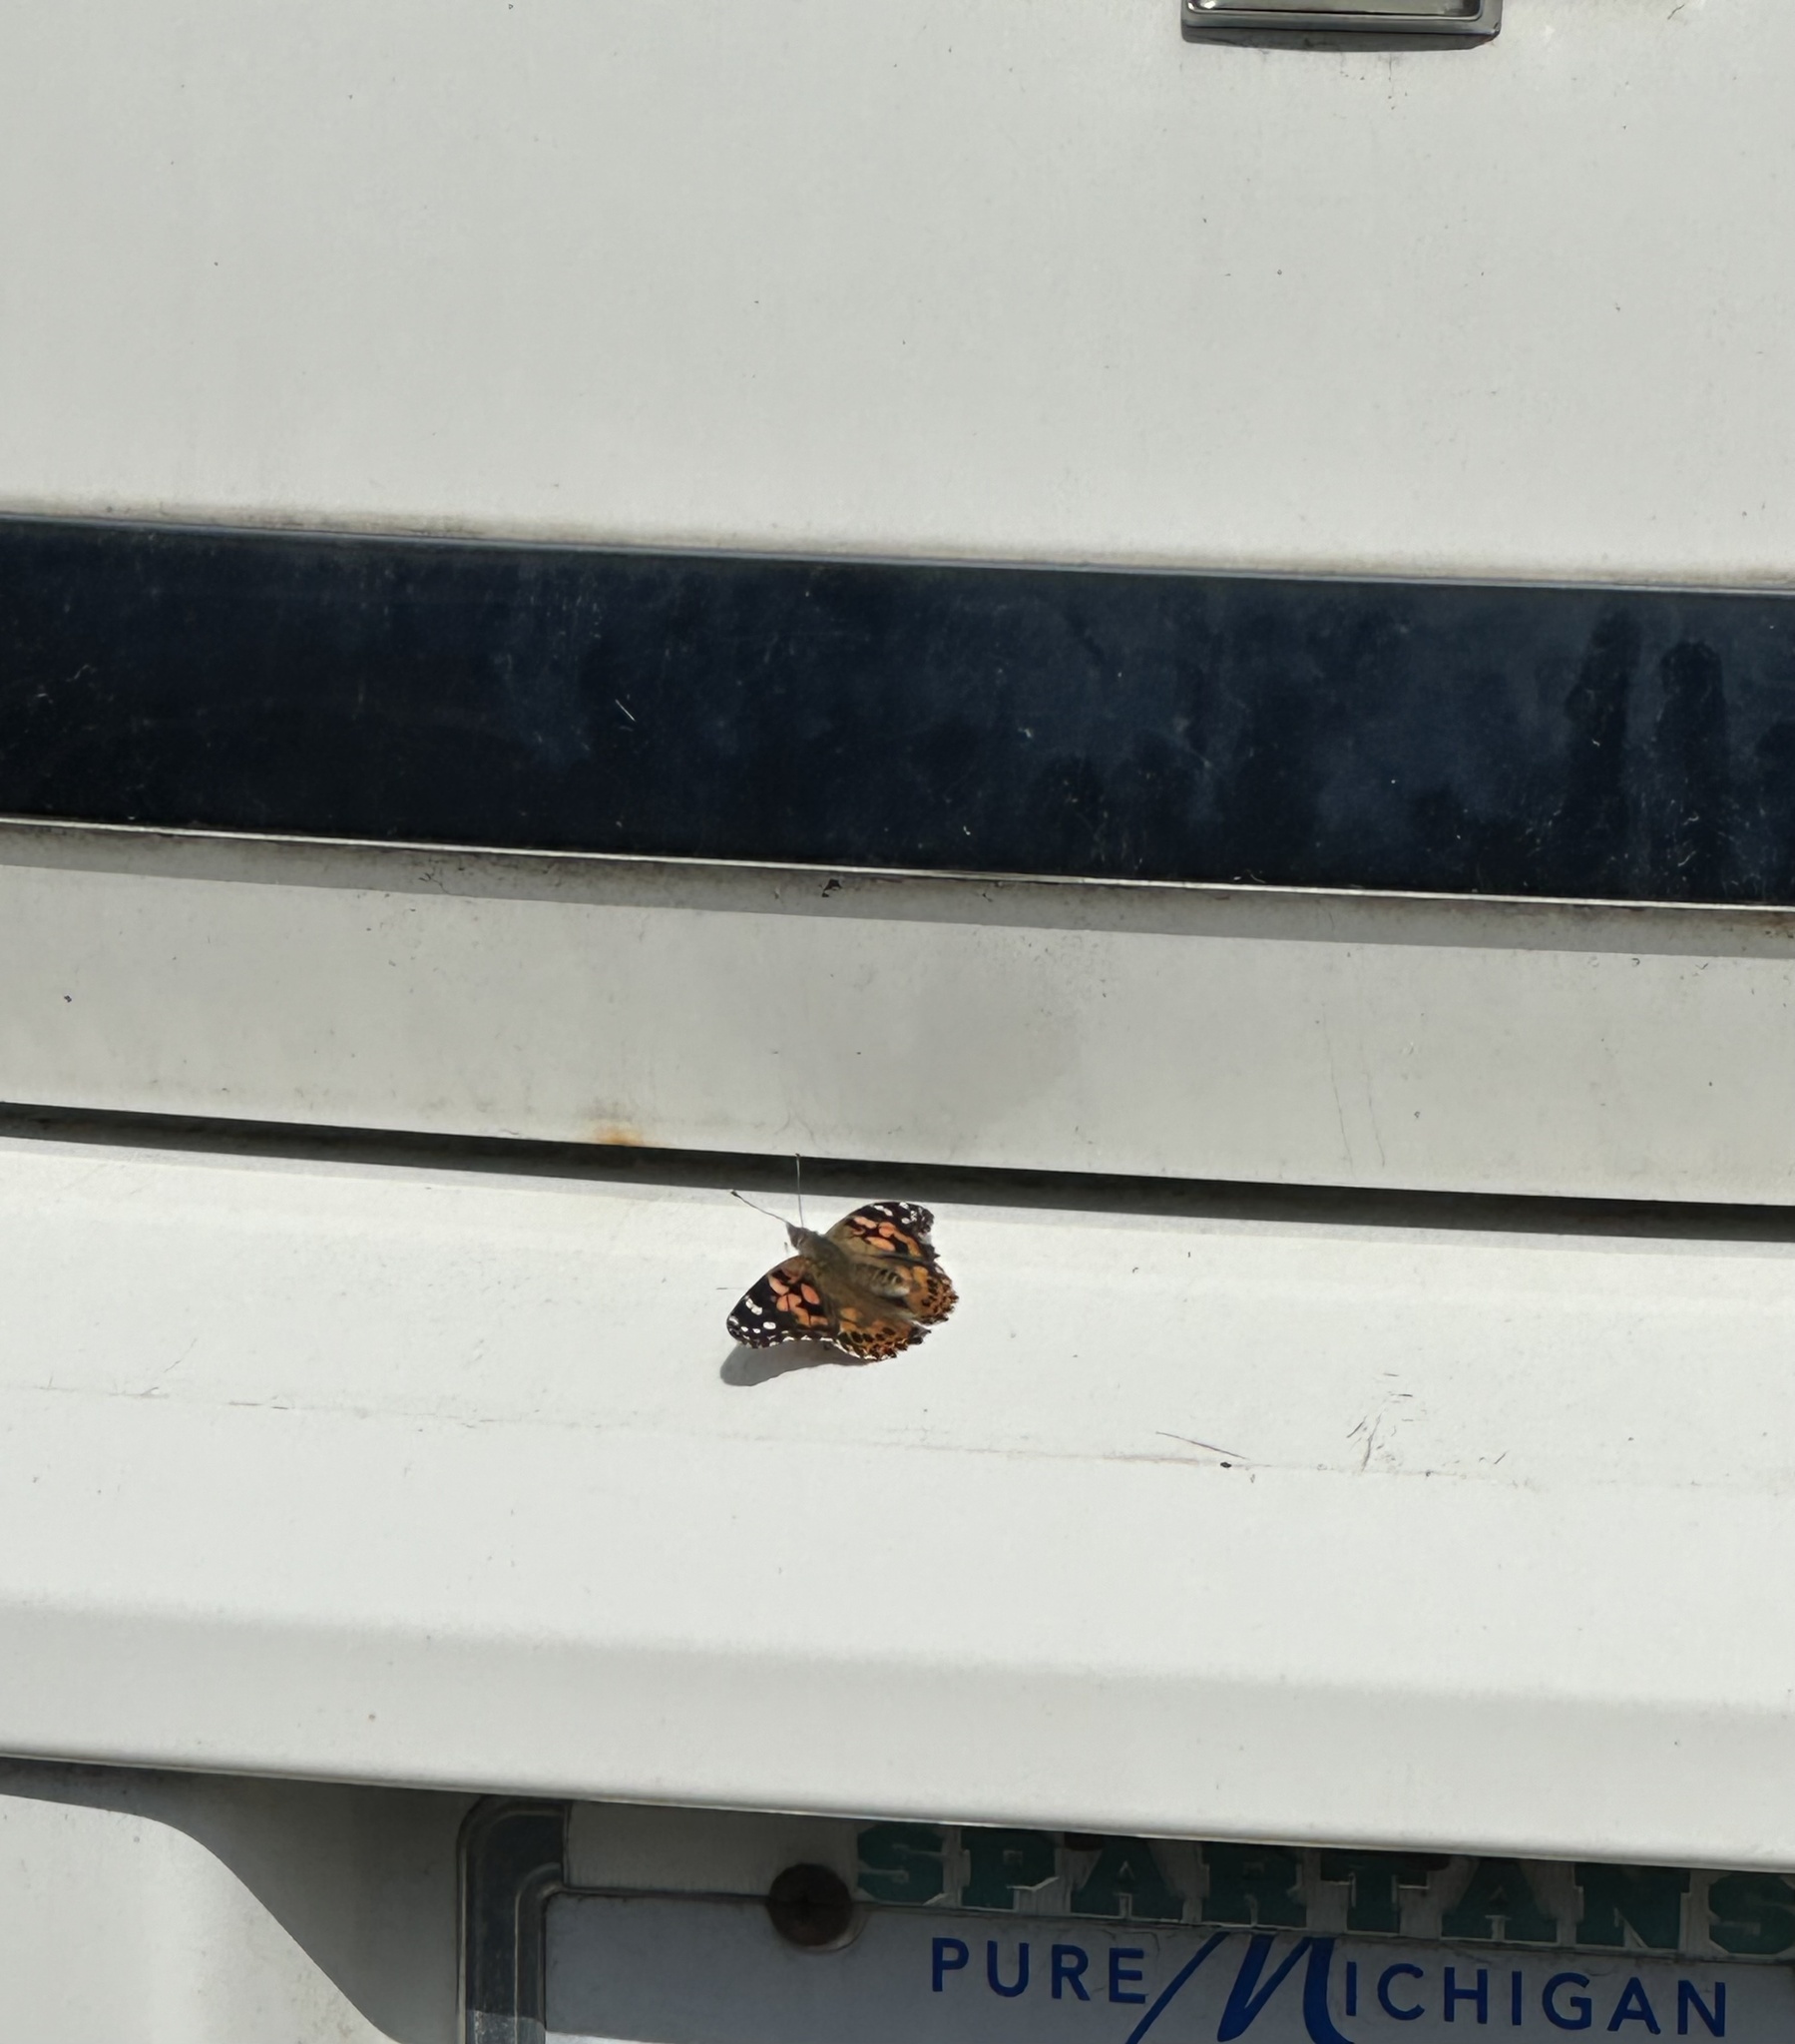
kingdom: Animalia
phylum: Arthropoda
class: Insecta
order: Lepidoptera
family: Nymphalidae
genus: Vanessa
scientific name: Vanessa cardui
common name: Painted lady
